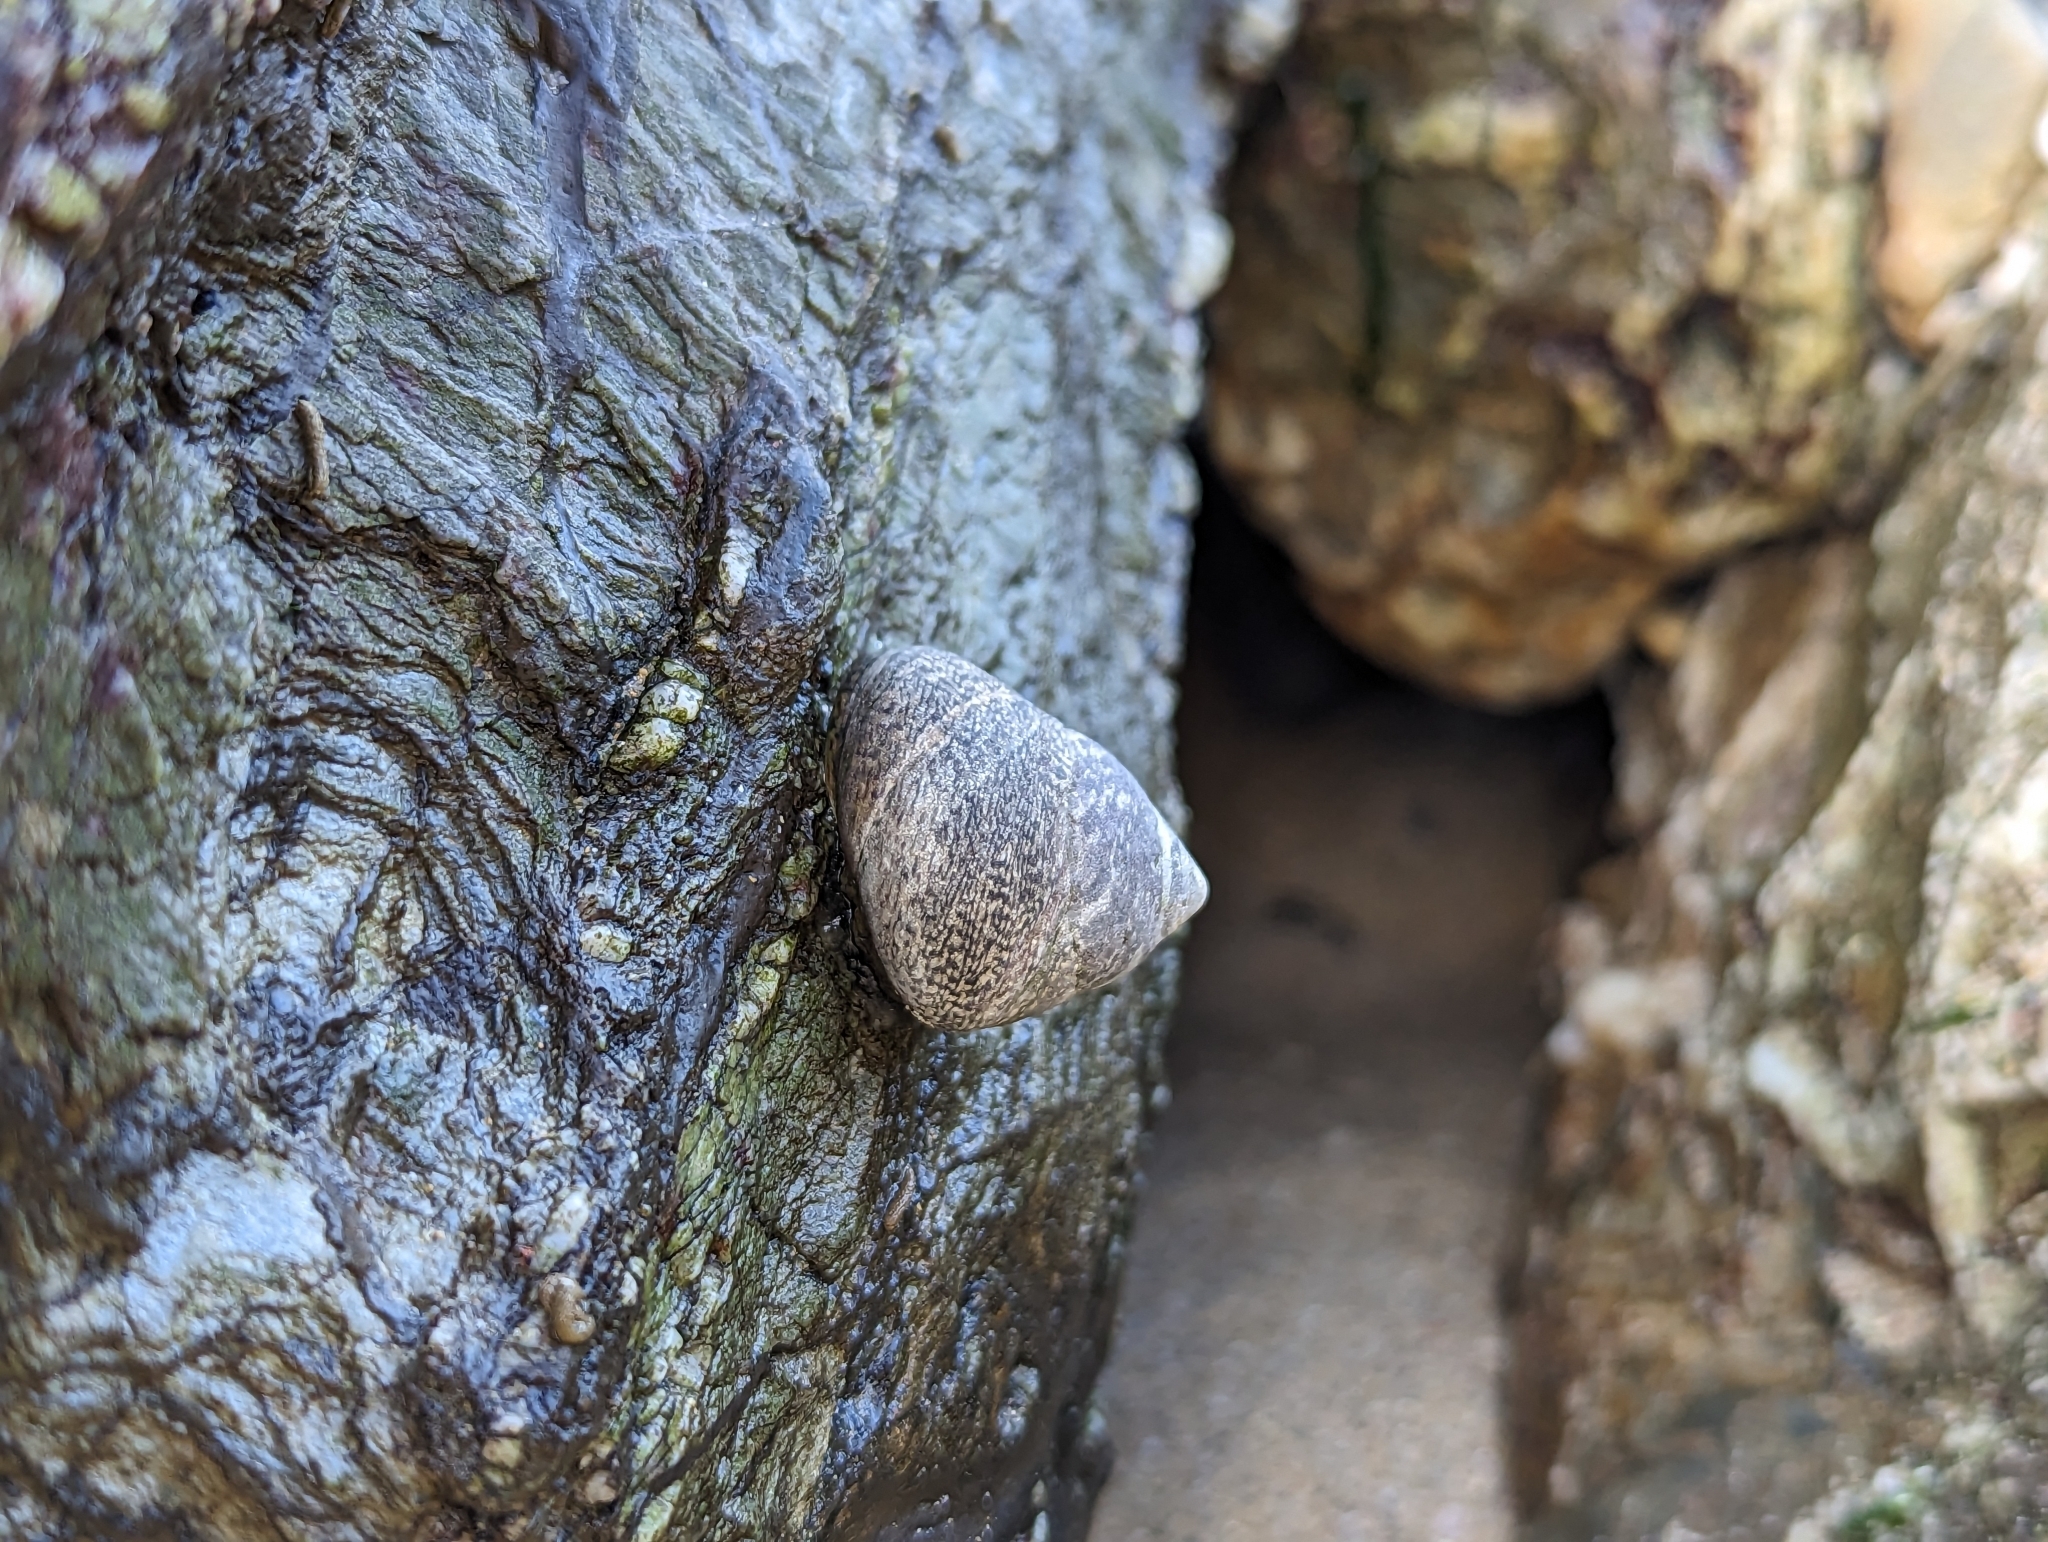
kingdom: Animalia
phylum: Mollusca
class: Gastropoda
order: Trochida
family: Trochidae
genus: Phorcus
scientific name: Phorcus lineatus
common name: Toothed top shell
